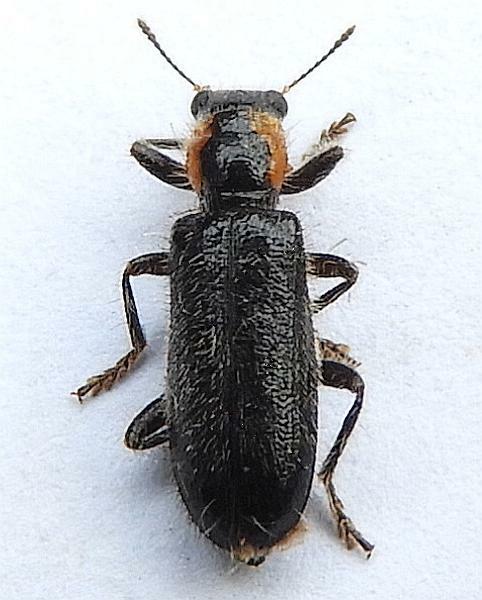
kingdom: Animalia
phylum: Arthropoda
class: Insecta
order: Coleoptera
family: Cleridae
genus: Placopterus
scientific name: Placopterus thoracicus
